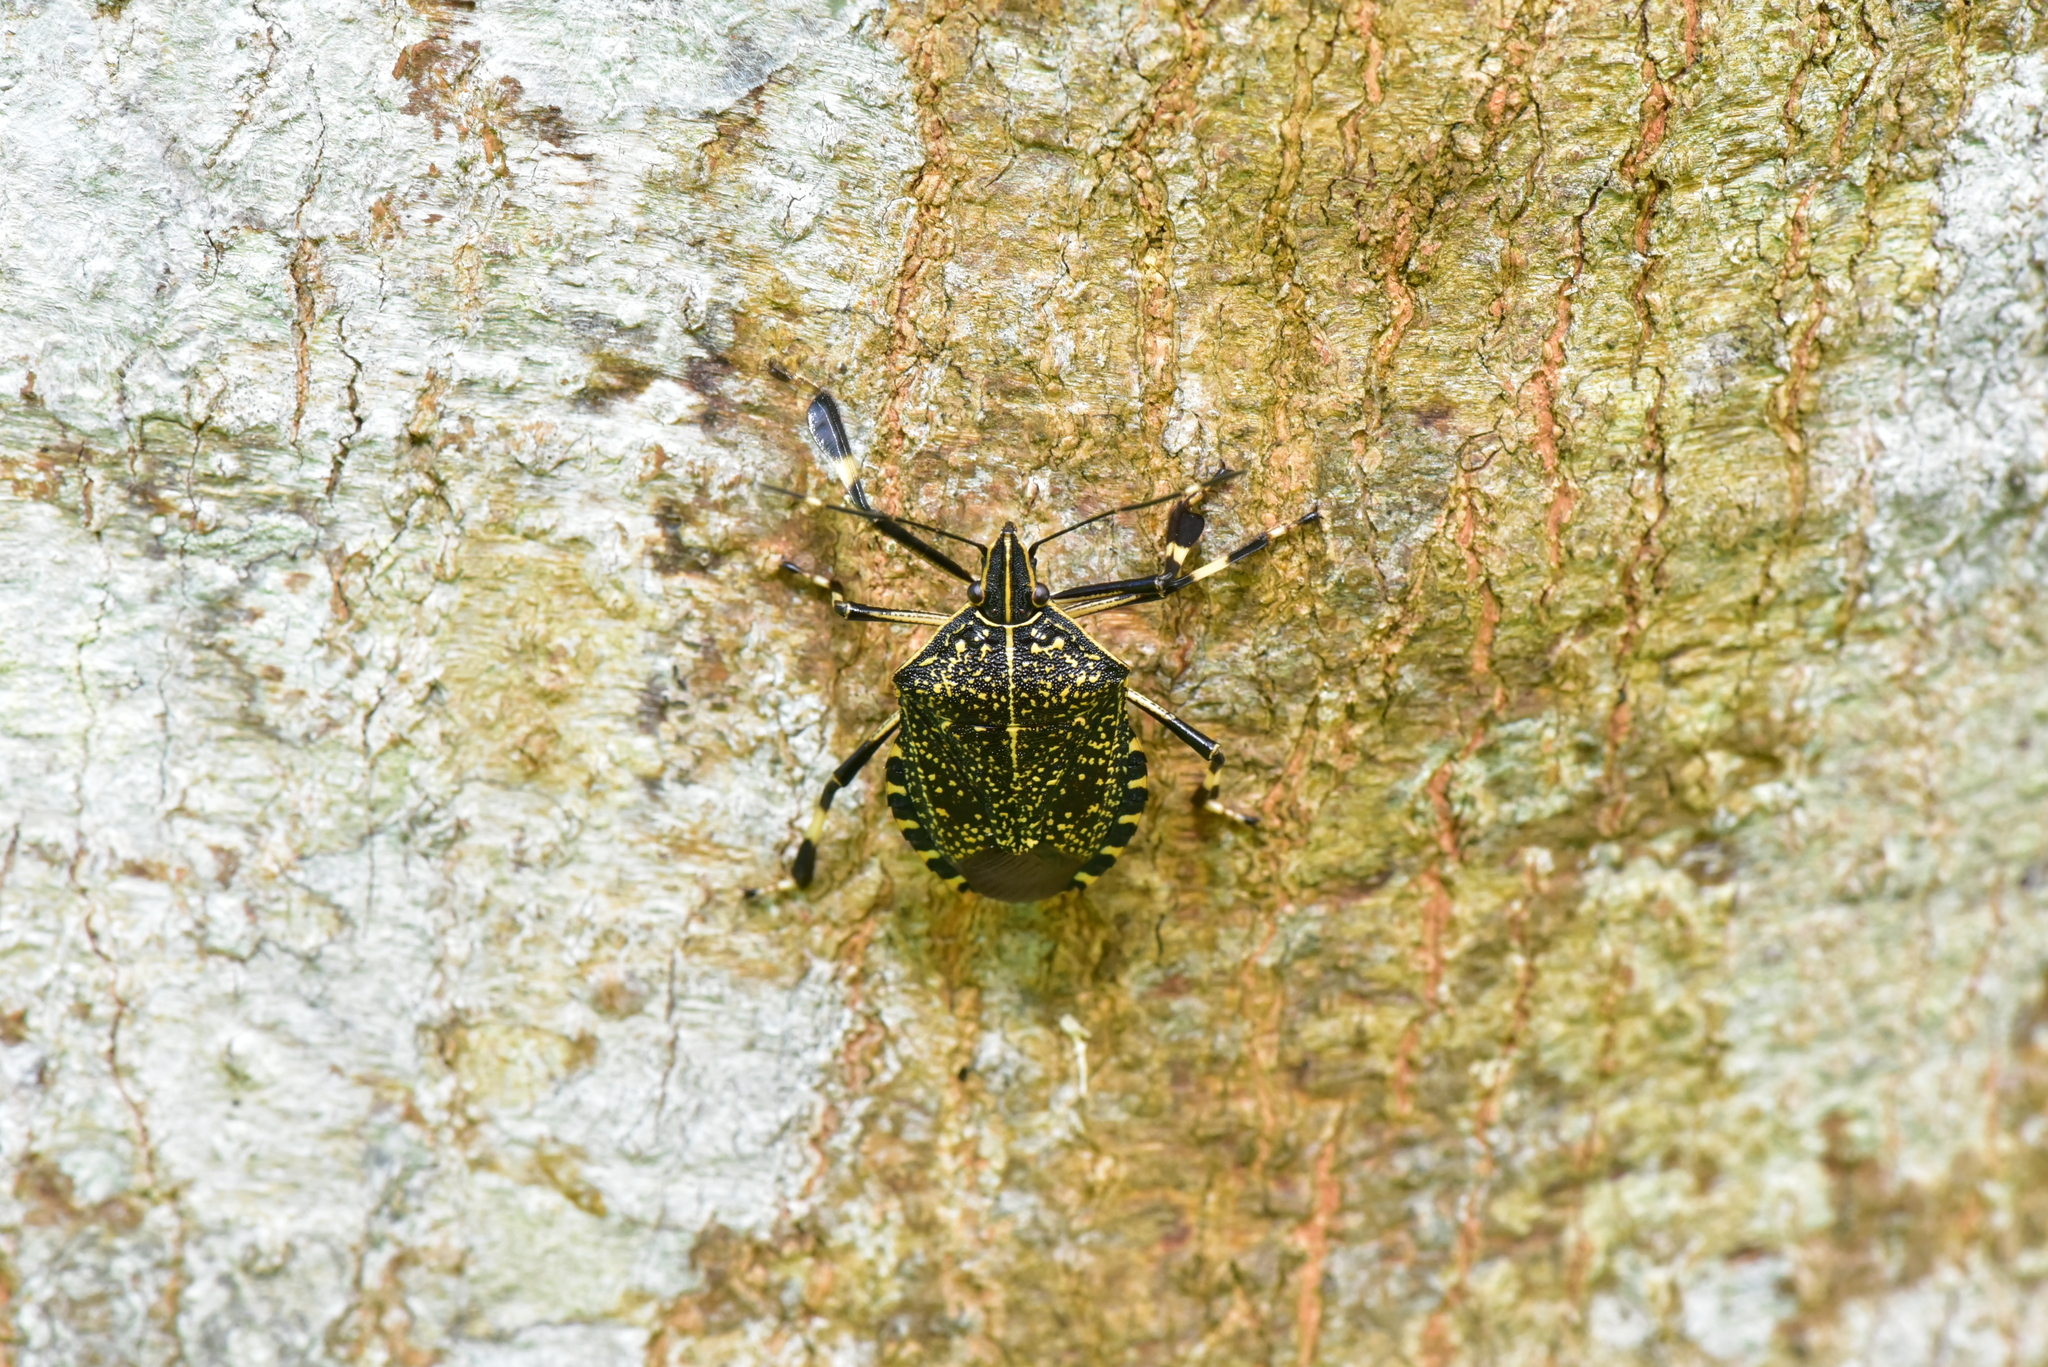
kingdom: Animalia
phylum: Arthropoda
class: Insecta
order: Hemiptera
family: Pentatomidae
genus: Erthesina
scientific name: Erthesina fullo
